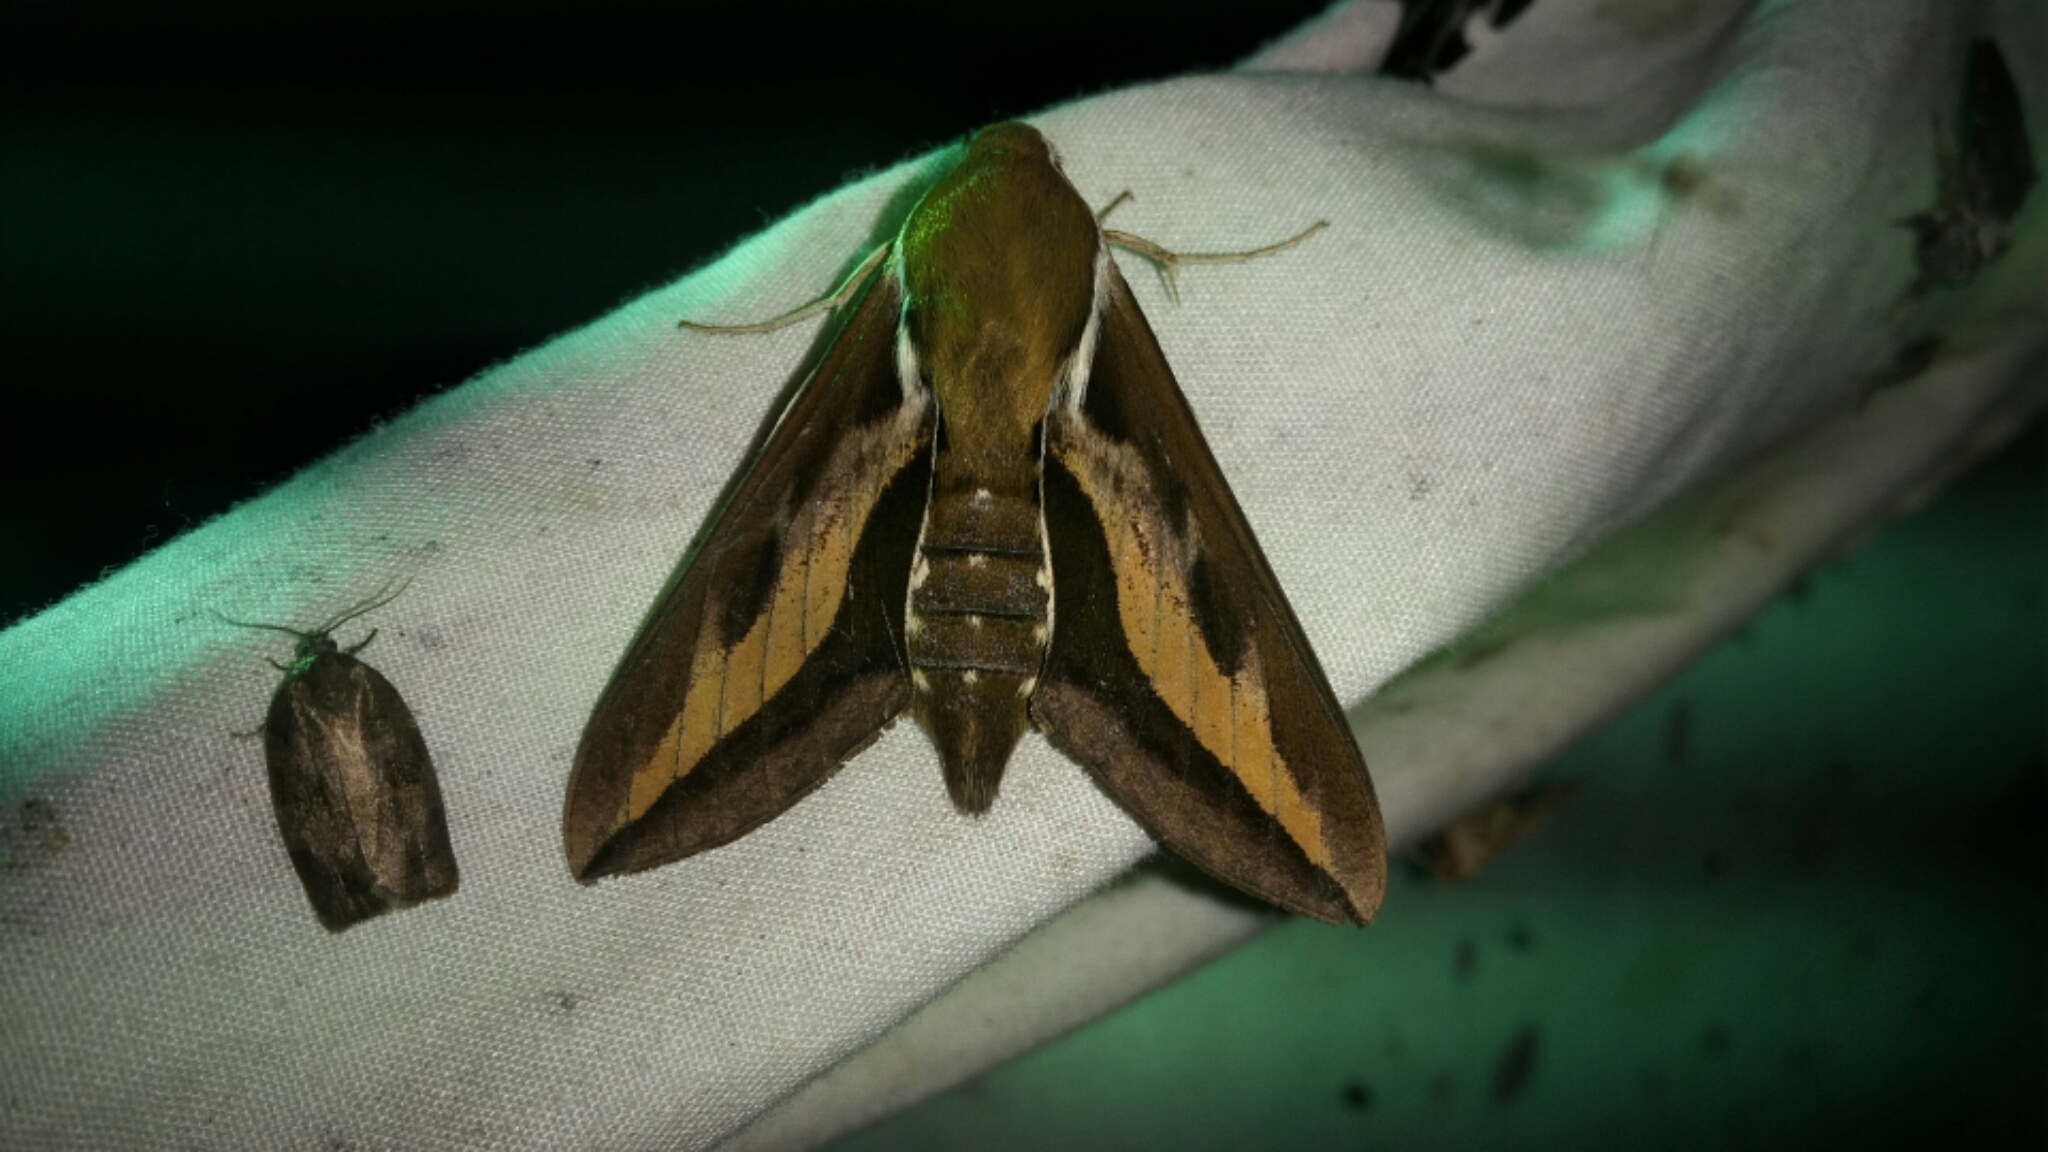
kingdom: Animalia
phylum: Arthropoda
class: Insecta
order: Lepidoptera
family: Sphingidae
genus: Hyles
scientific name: Hyles gallii
